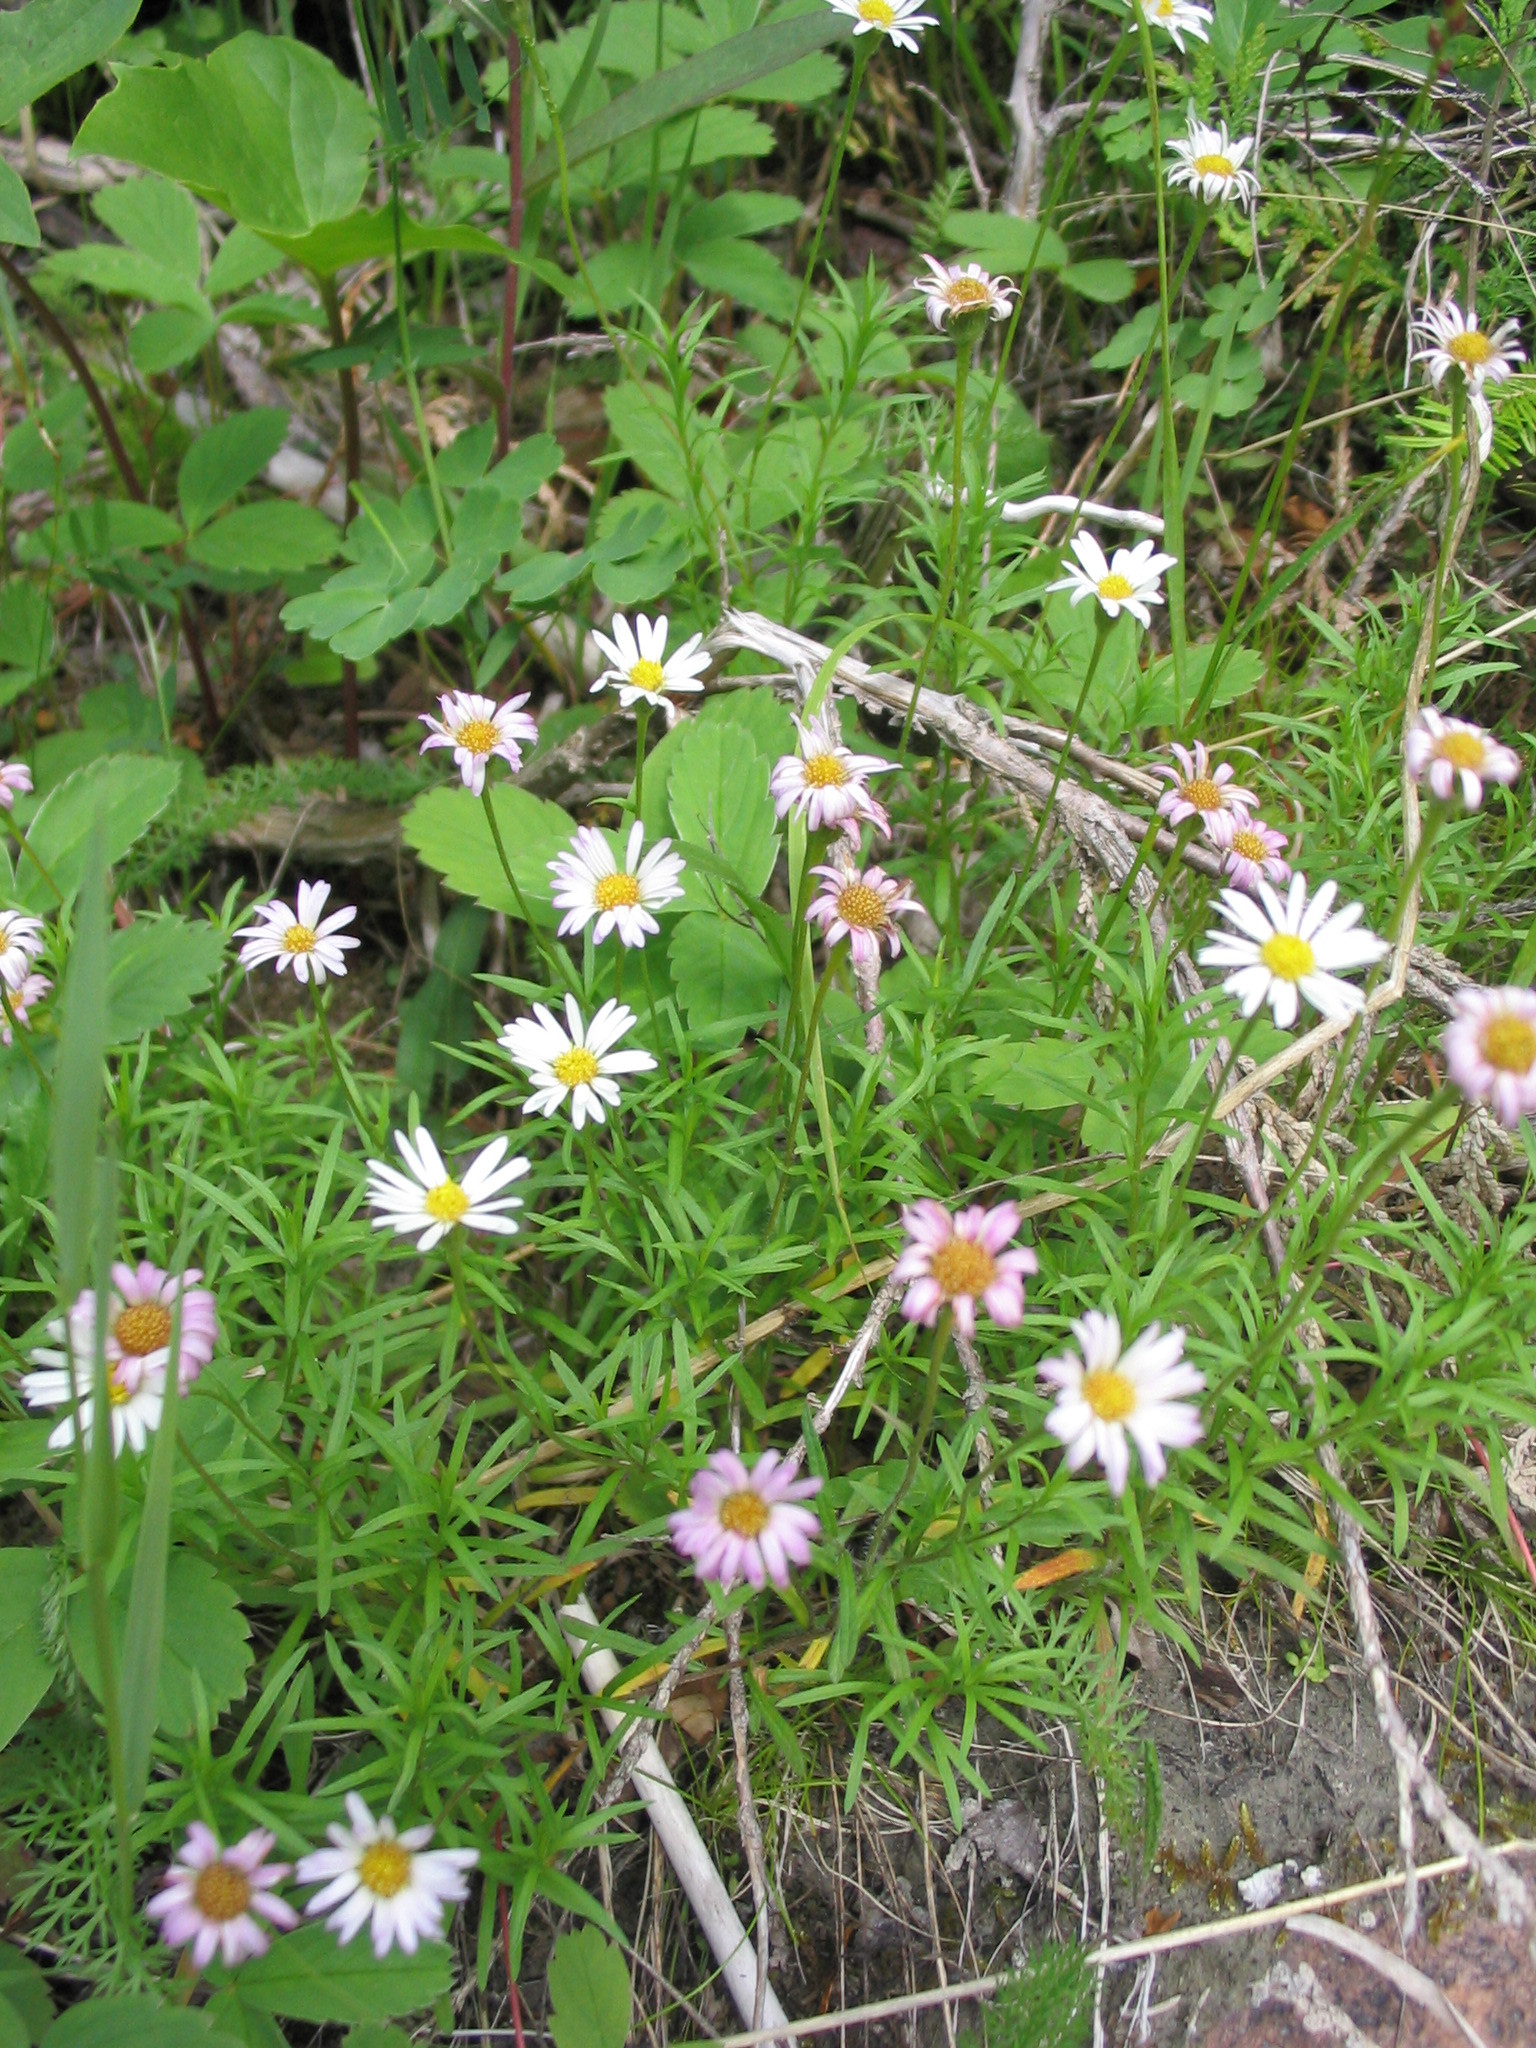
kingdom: Plantae
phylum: Tracheophyta
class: Magnoliopsida
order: Asterales
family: Asteraceae
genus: Erigeron
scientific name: Erigeron hyssopifolius
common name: Daisy fleabane
